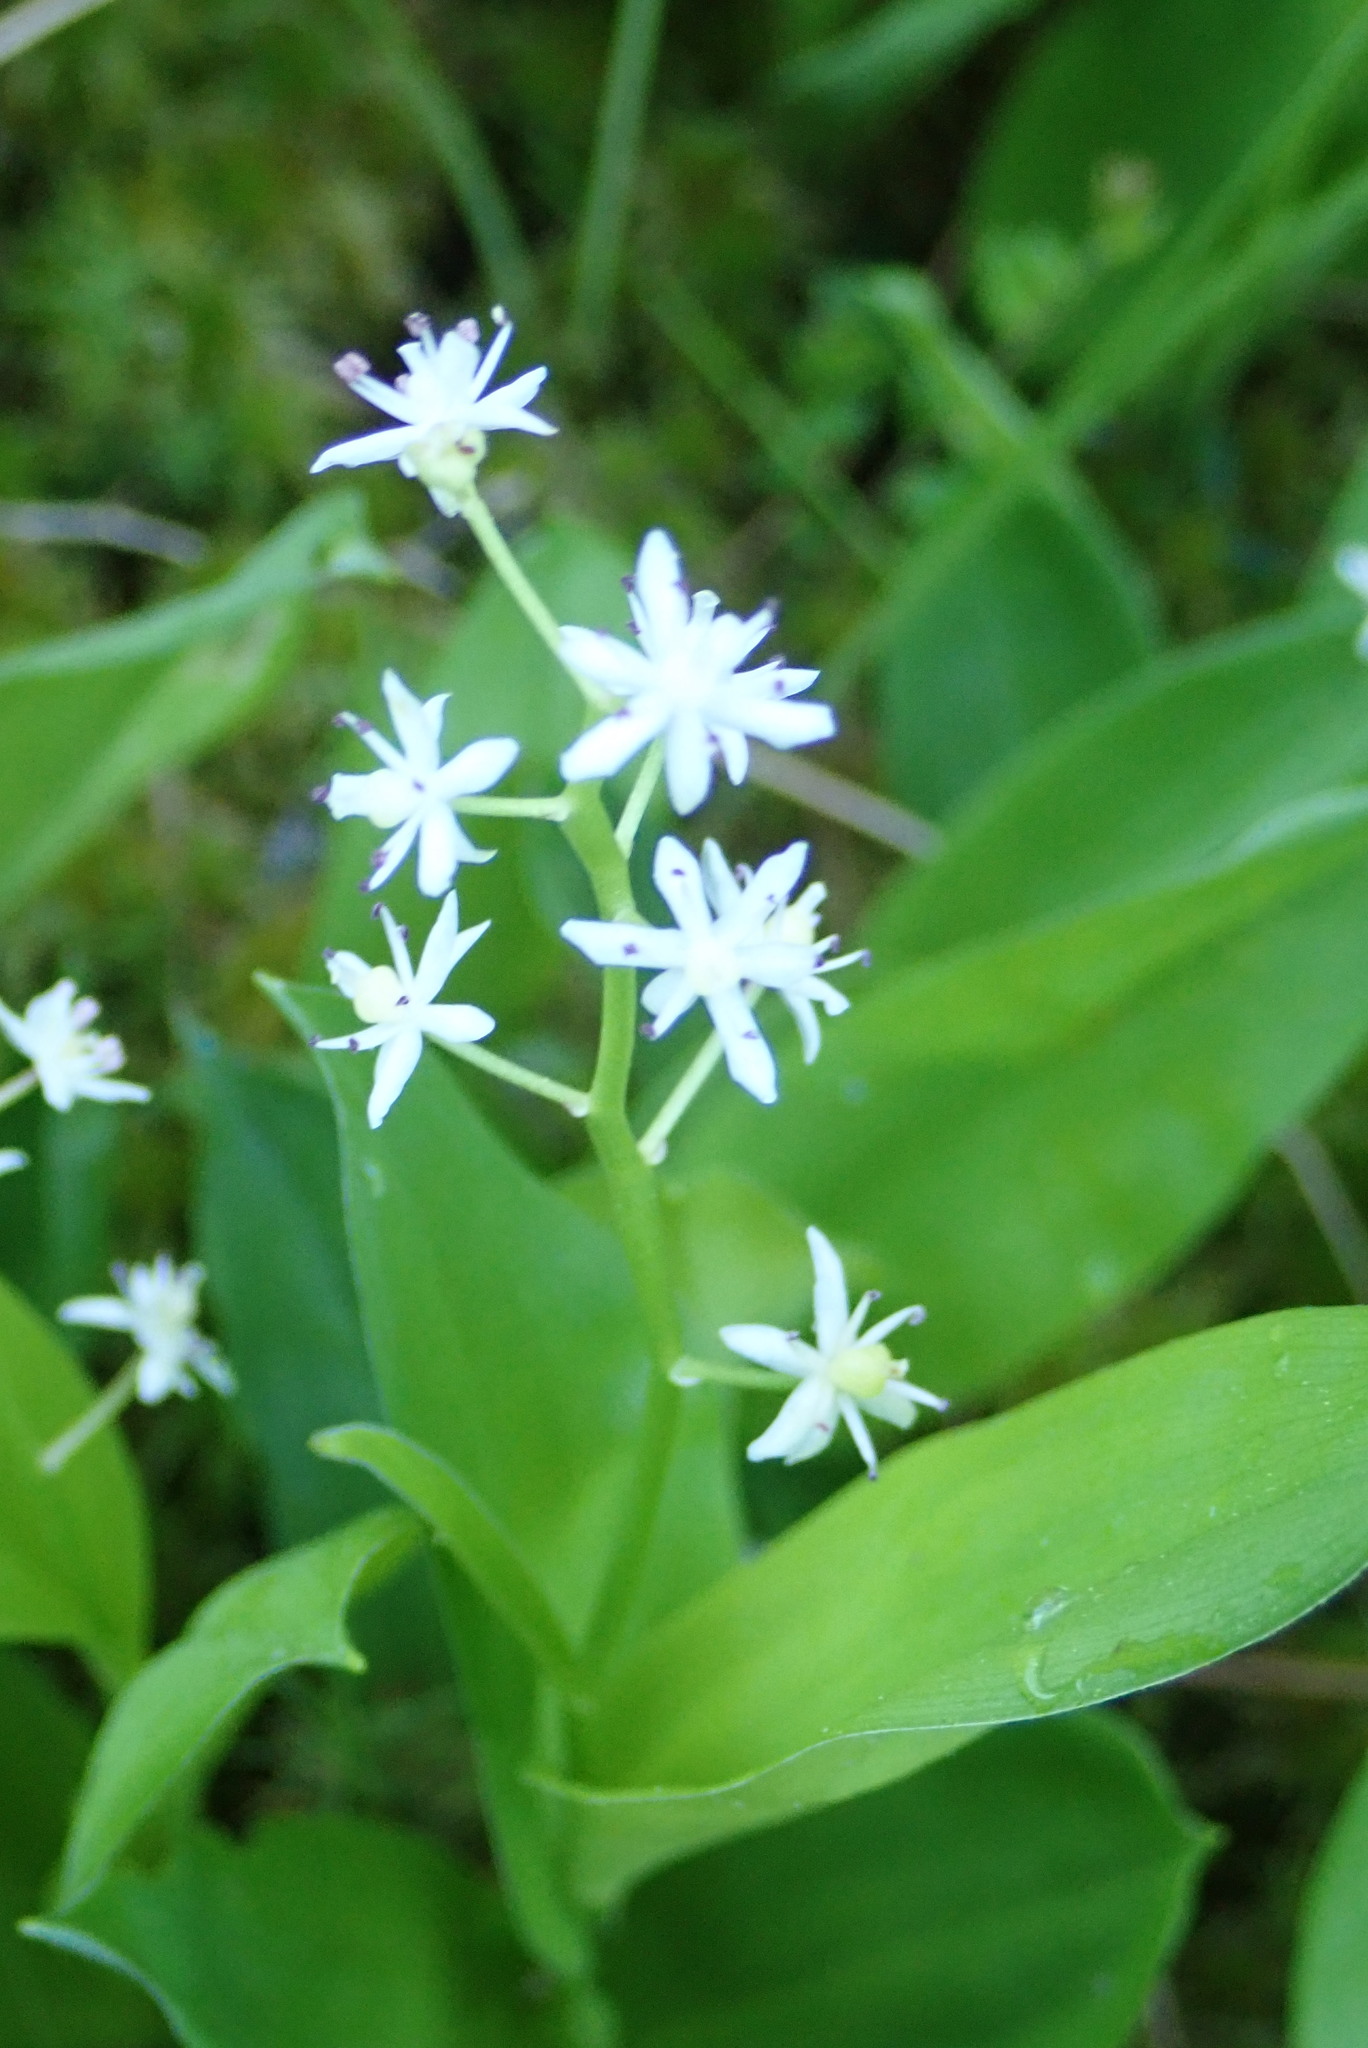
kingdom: Plantae
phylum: Tracheophyta
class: Liliopsida
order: Asparagales
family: Asparagaceae
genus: Maianthemum
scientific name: Maianthemum trifolium
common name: Swamp false solomon's seal
